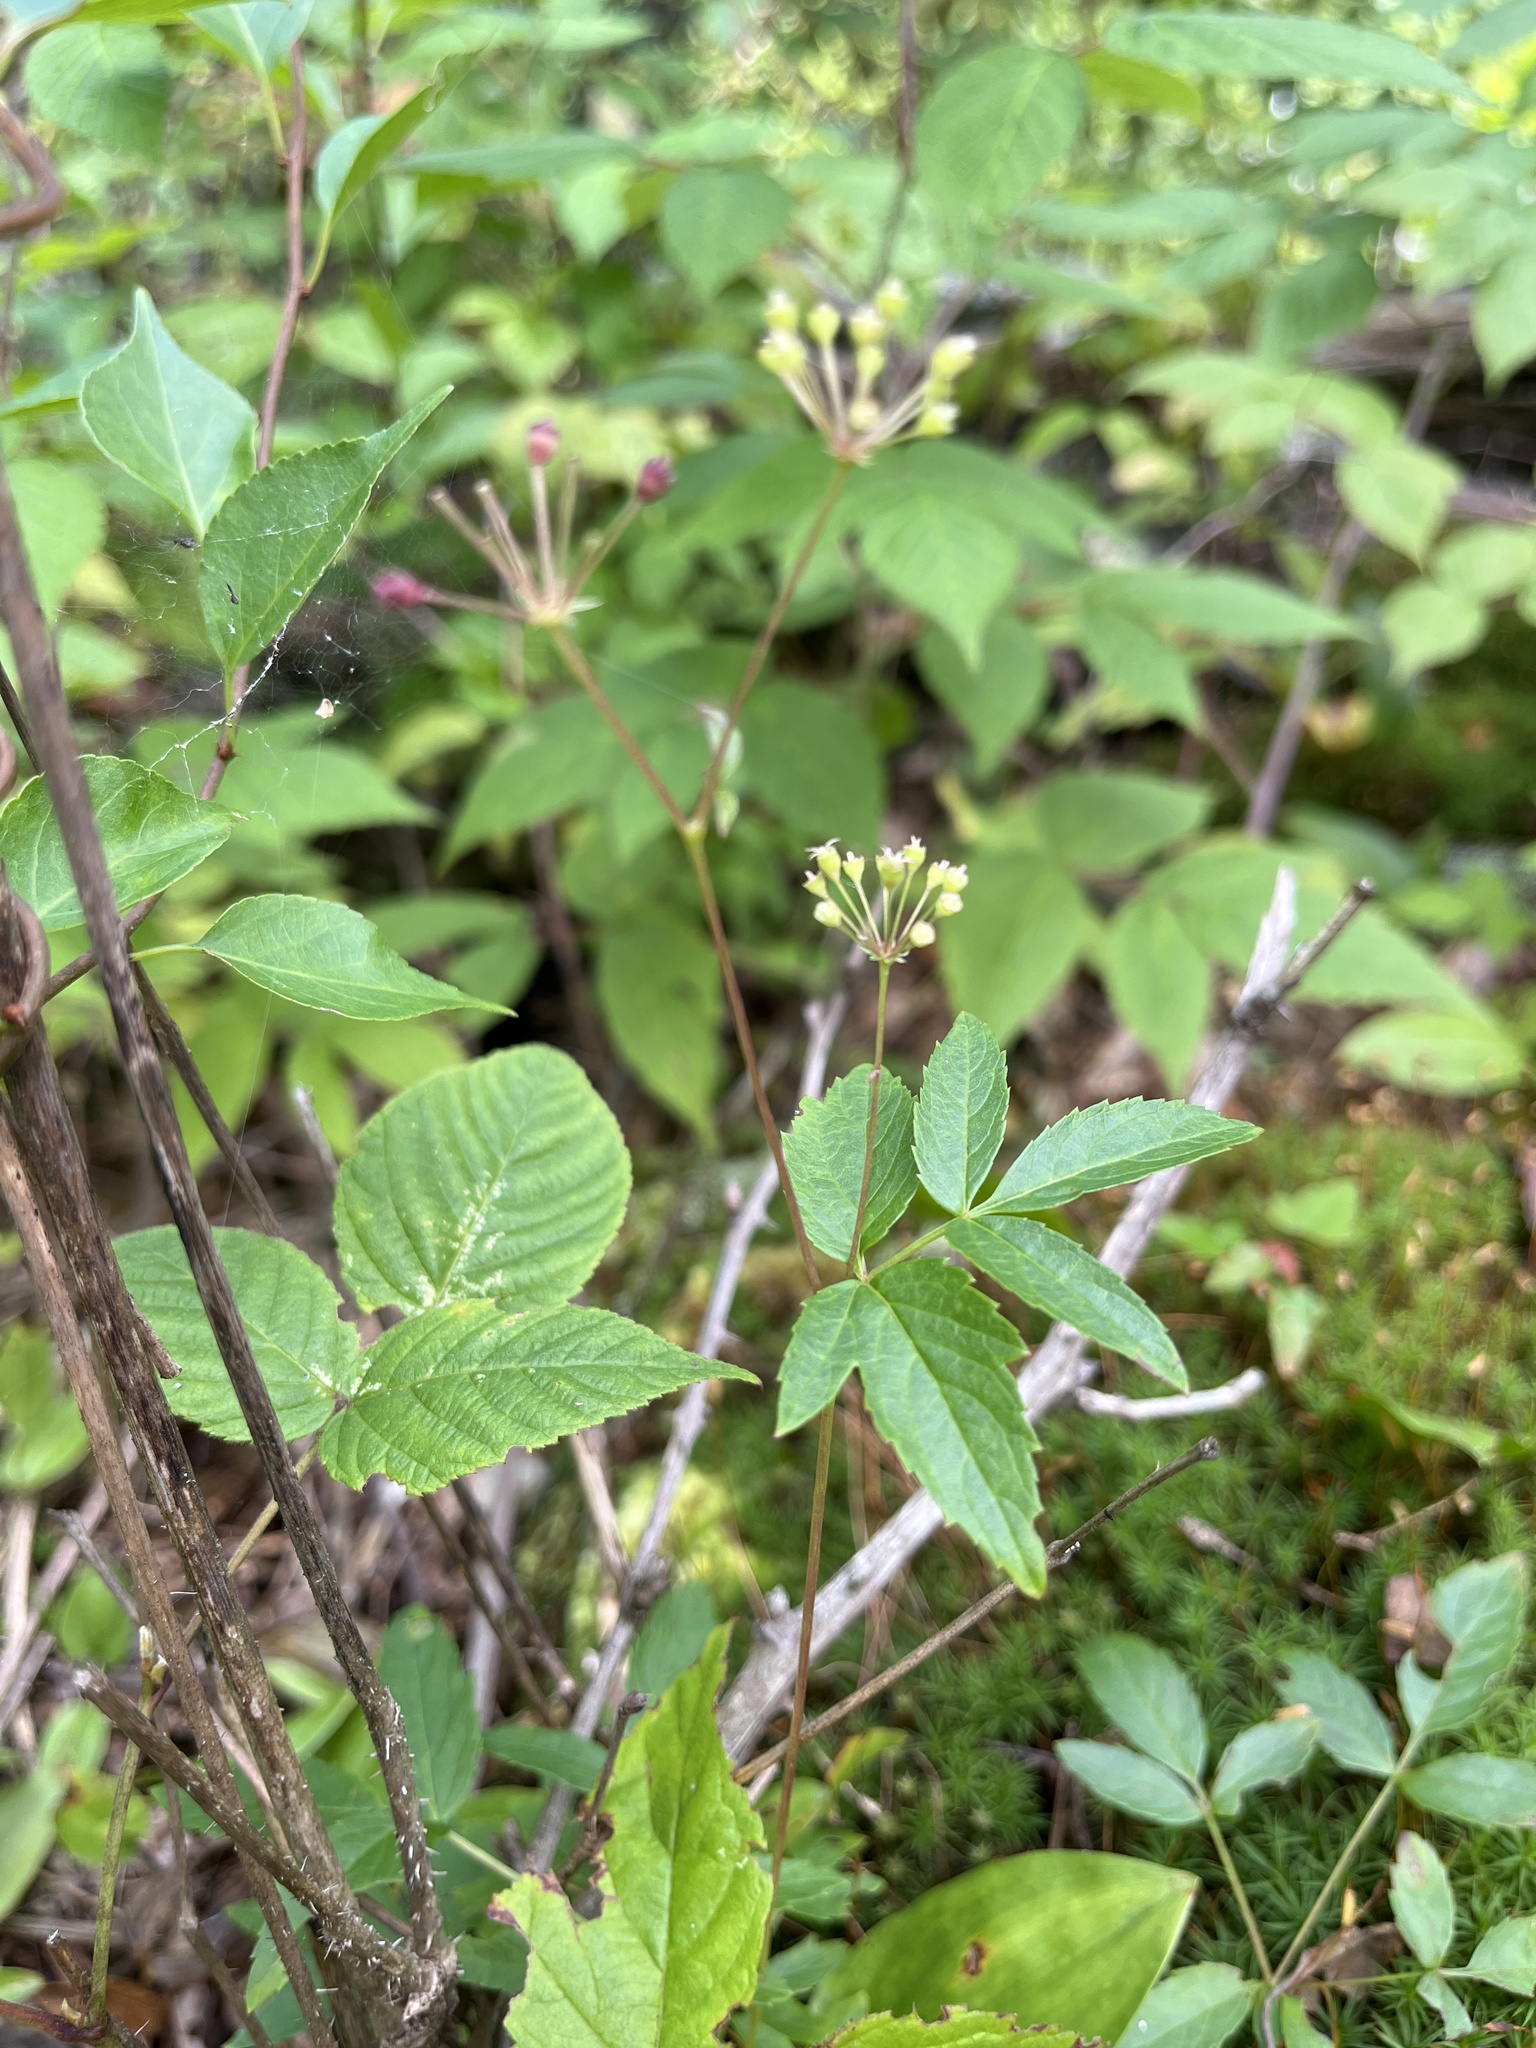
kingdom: Plantae
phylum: Tracheophyta
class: Magnoliopsida
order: Apiales
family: Araliaceae
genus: Aralia
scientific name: Aralia hispida
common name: Bristly sarsaparilla
